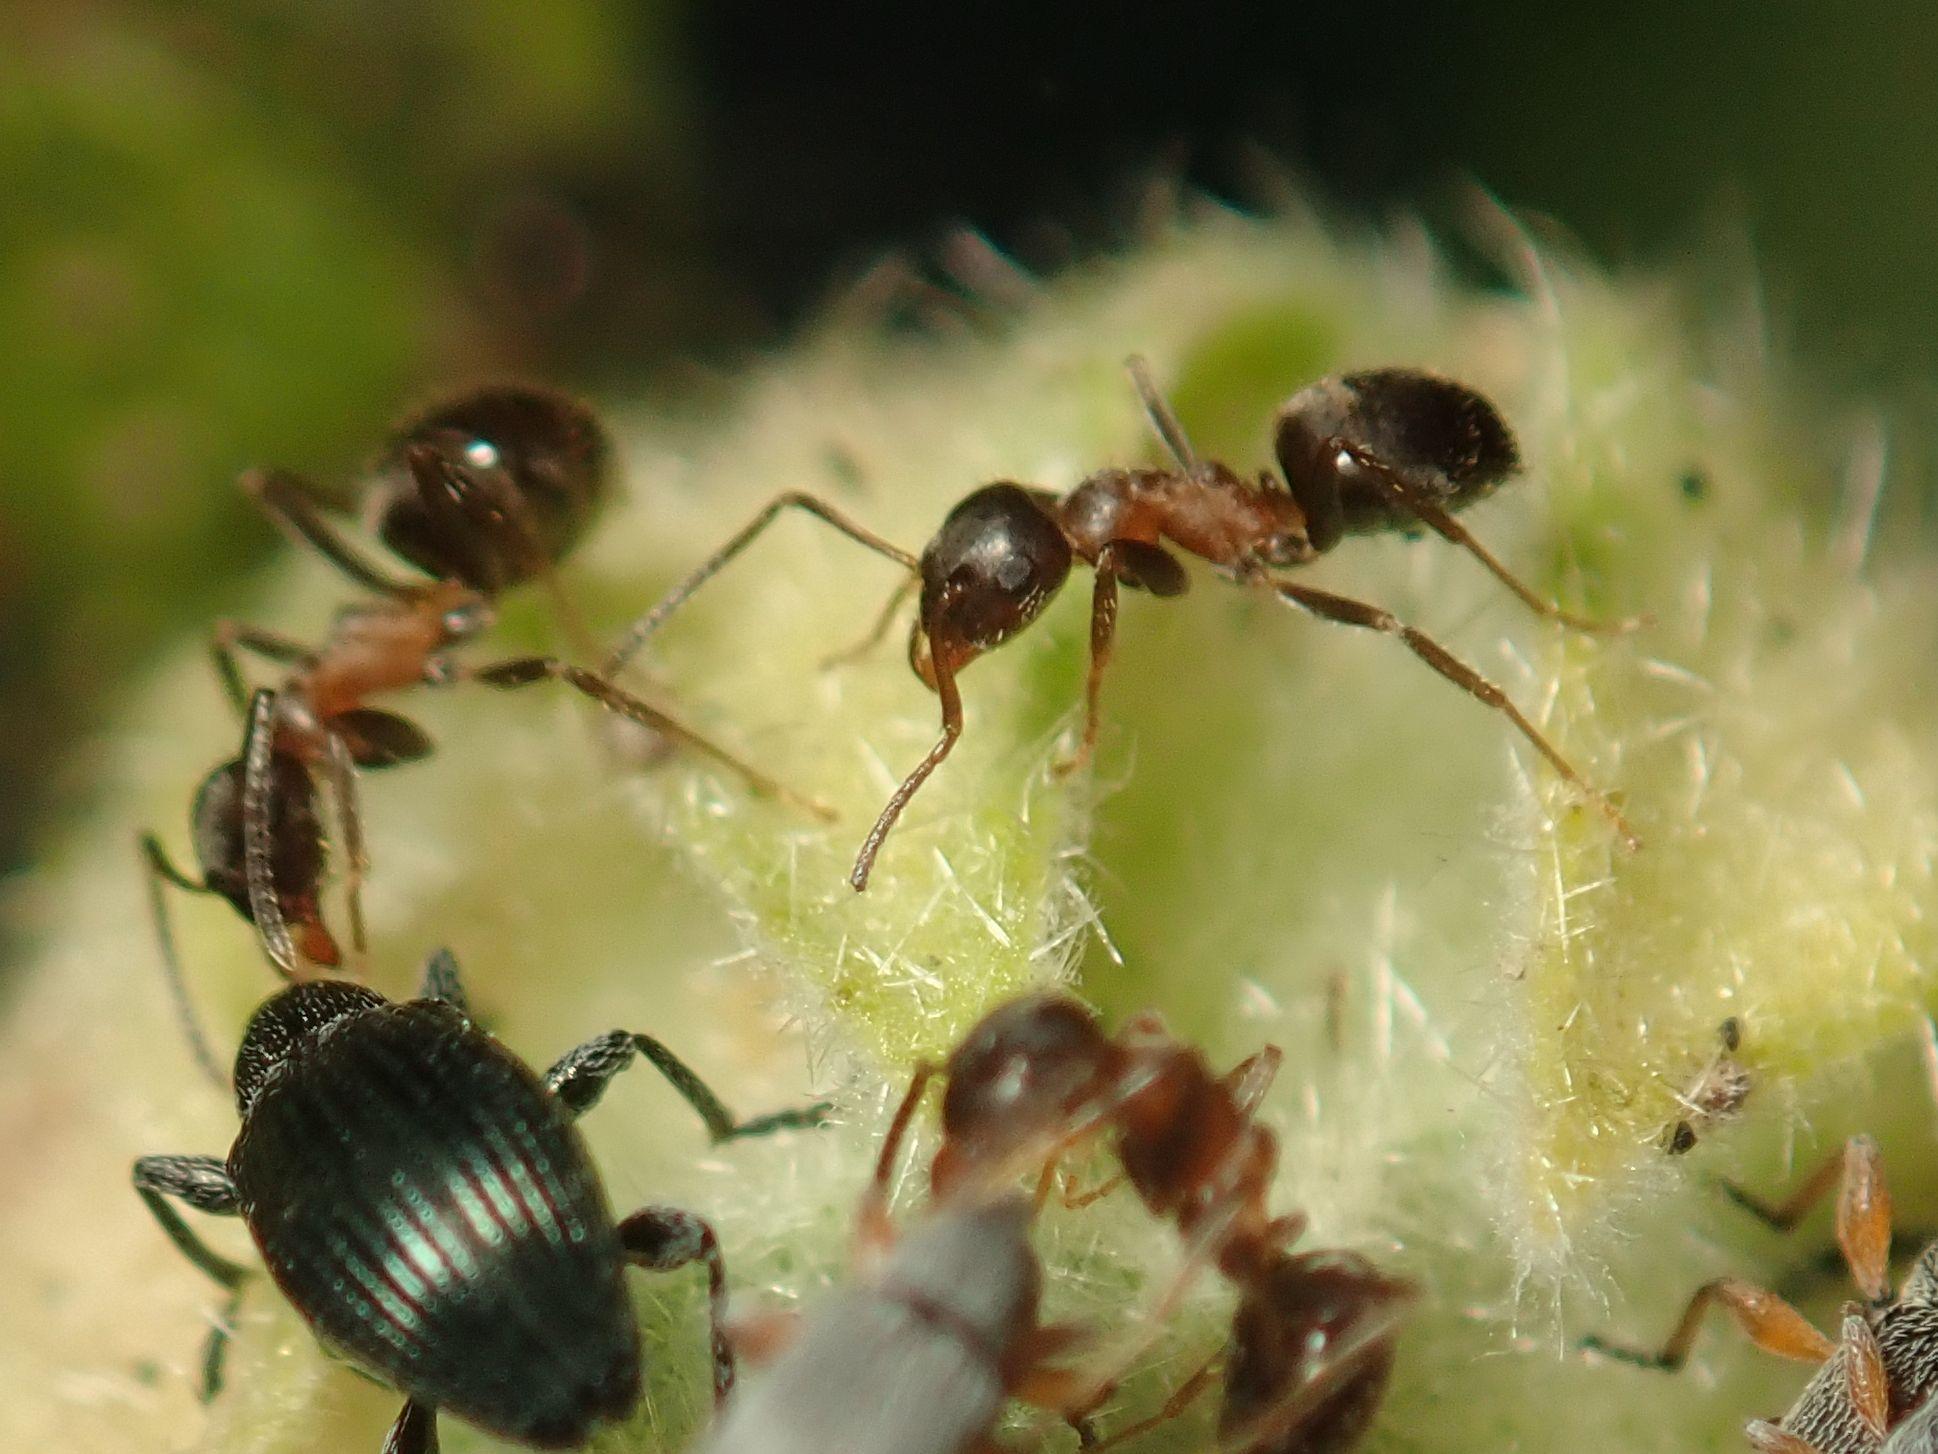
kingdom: Animalia
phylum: Arthropoda
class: Insecta
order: Hymenoptera
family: Formicidae
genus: Lasius
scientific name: Lasius emarginatus
